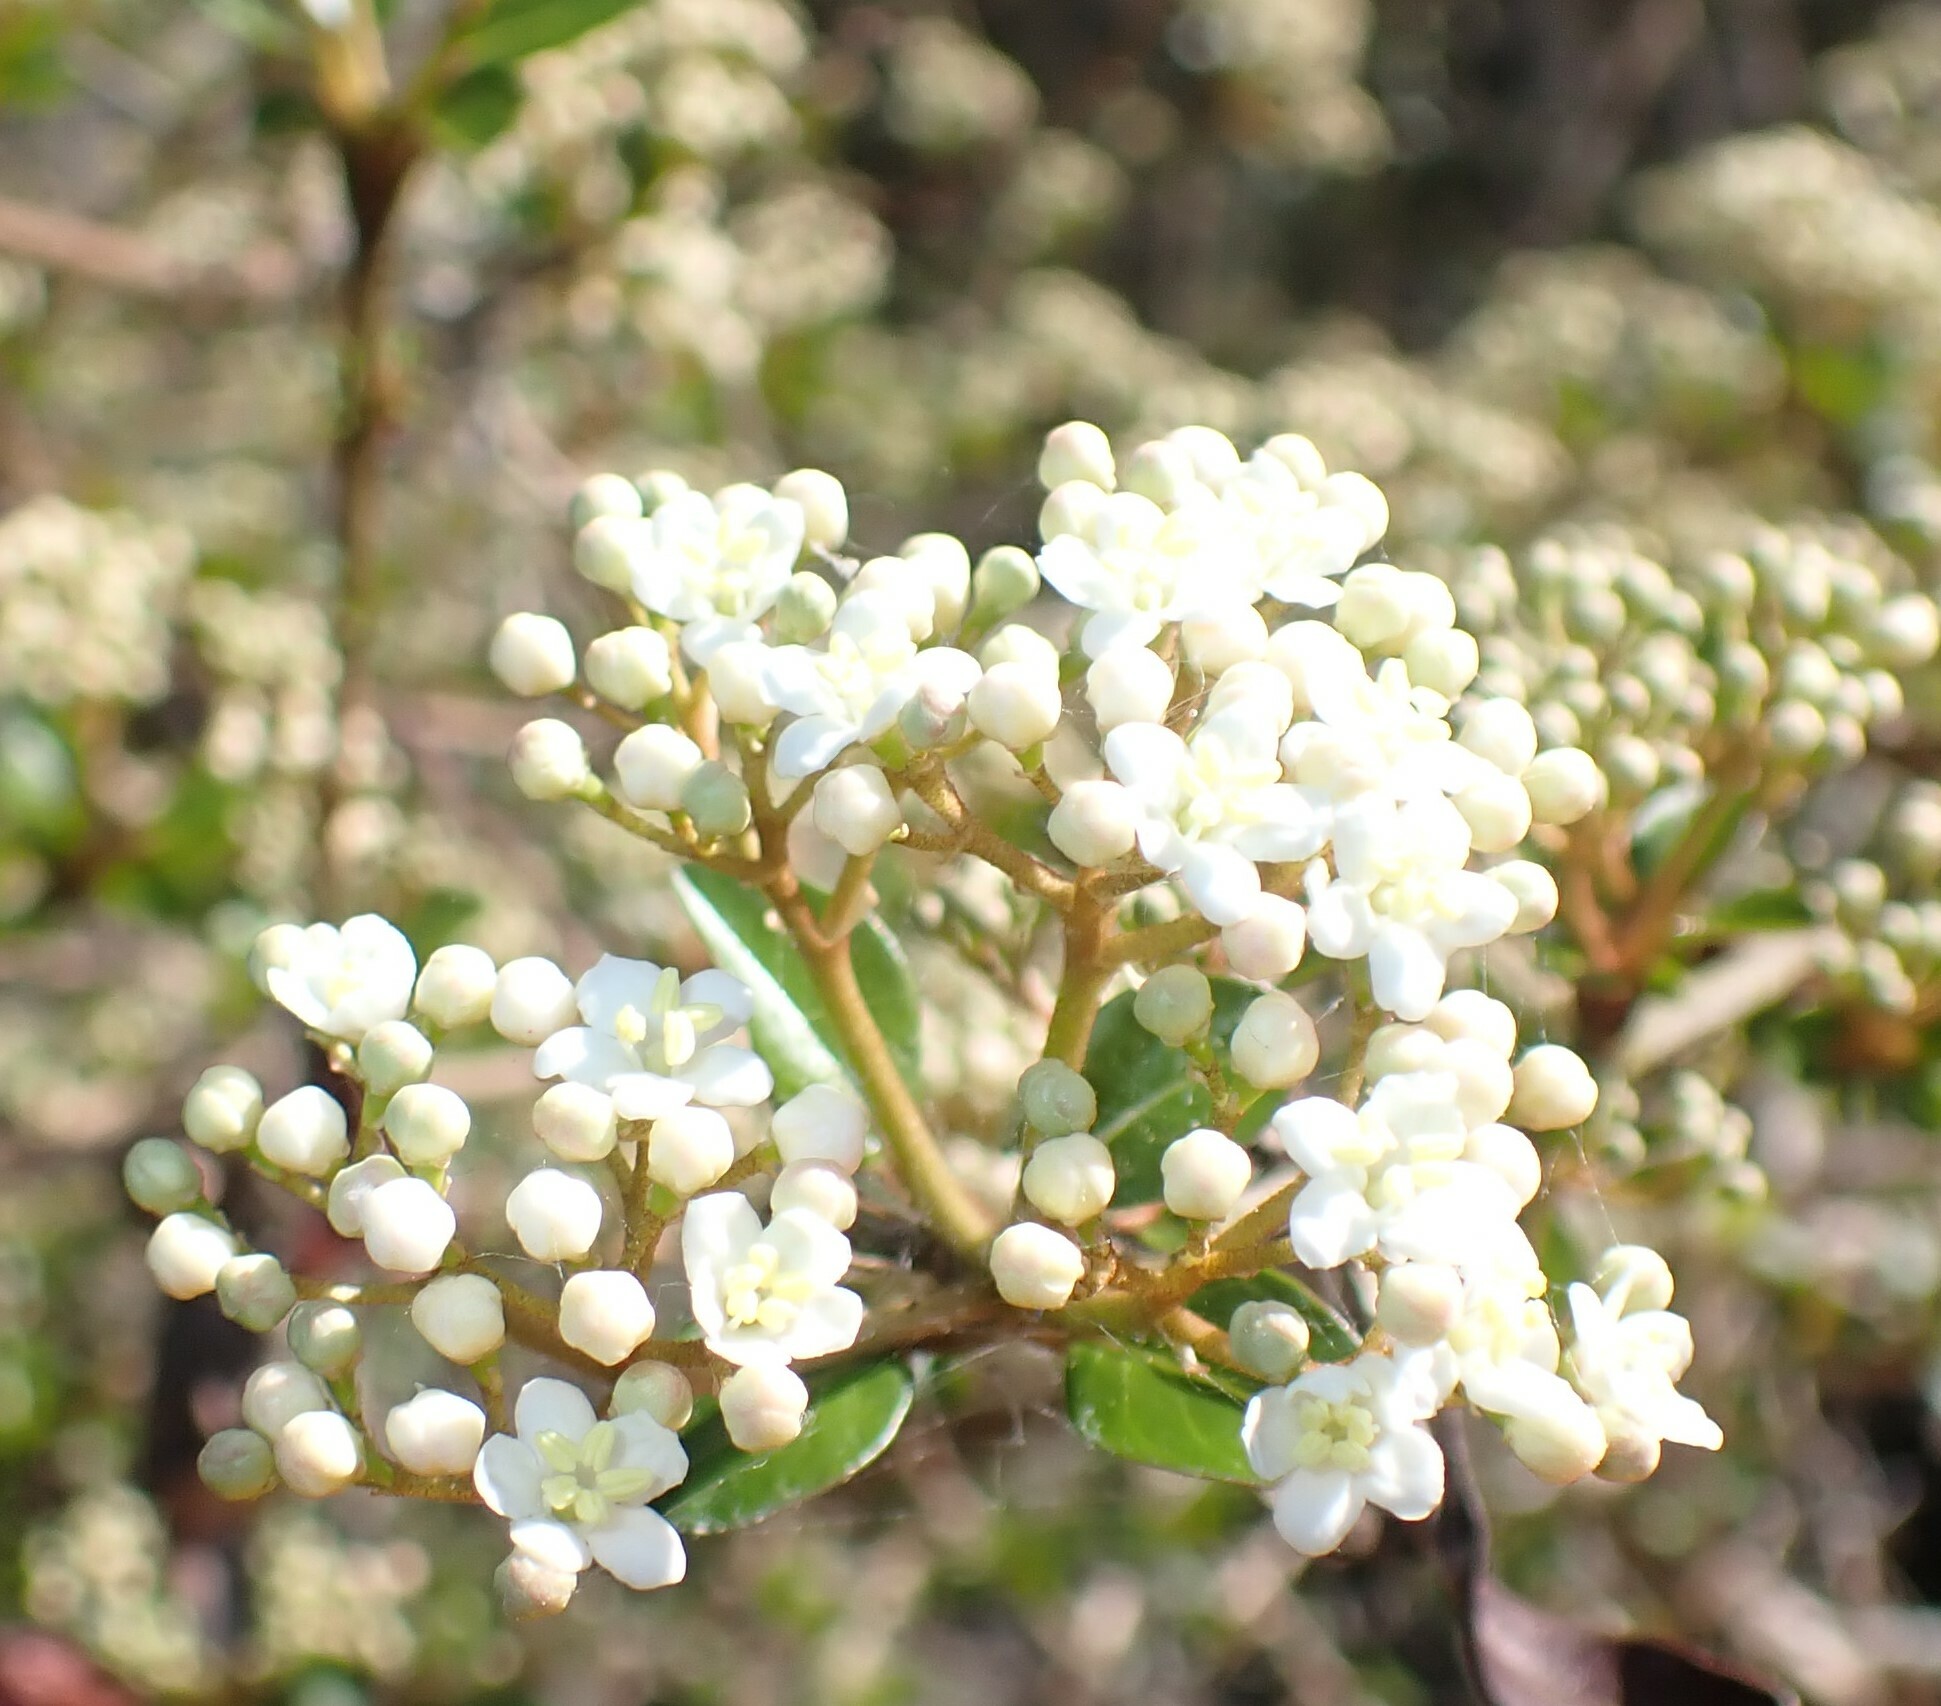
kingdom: Plantae
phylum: Tracheophyta
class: Magnoliopsida
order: Dipsacales
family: Viburnaceae
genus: Viburnum
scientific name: Viburnum obovatum
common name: Walter's viburnum
